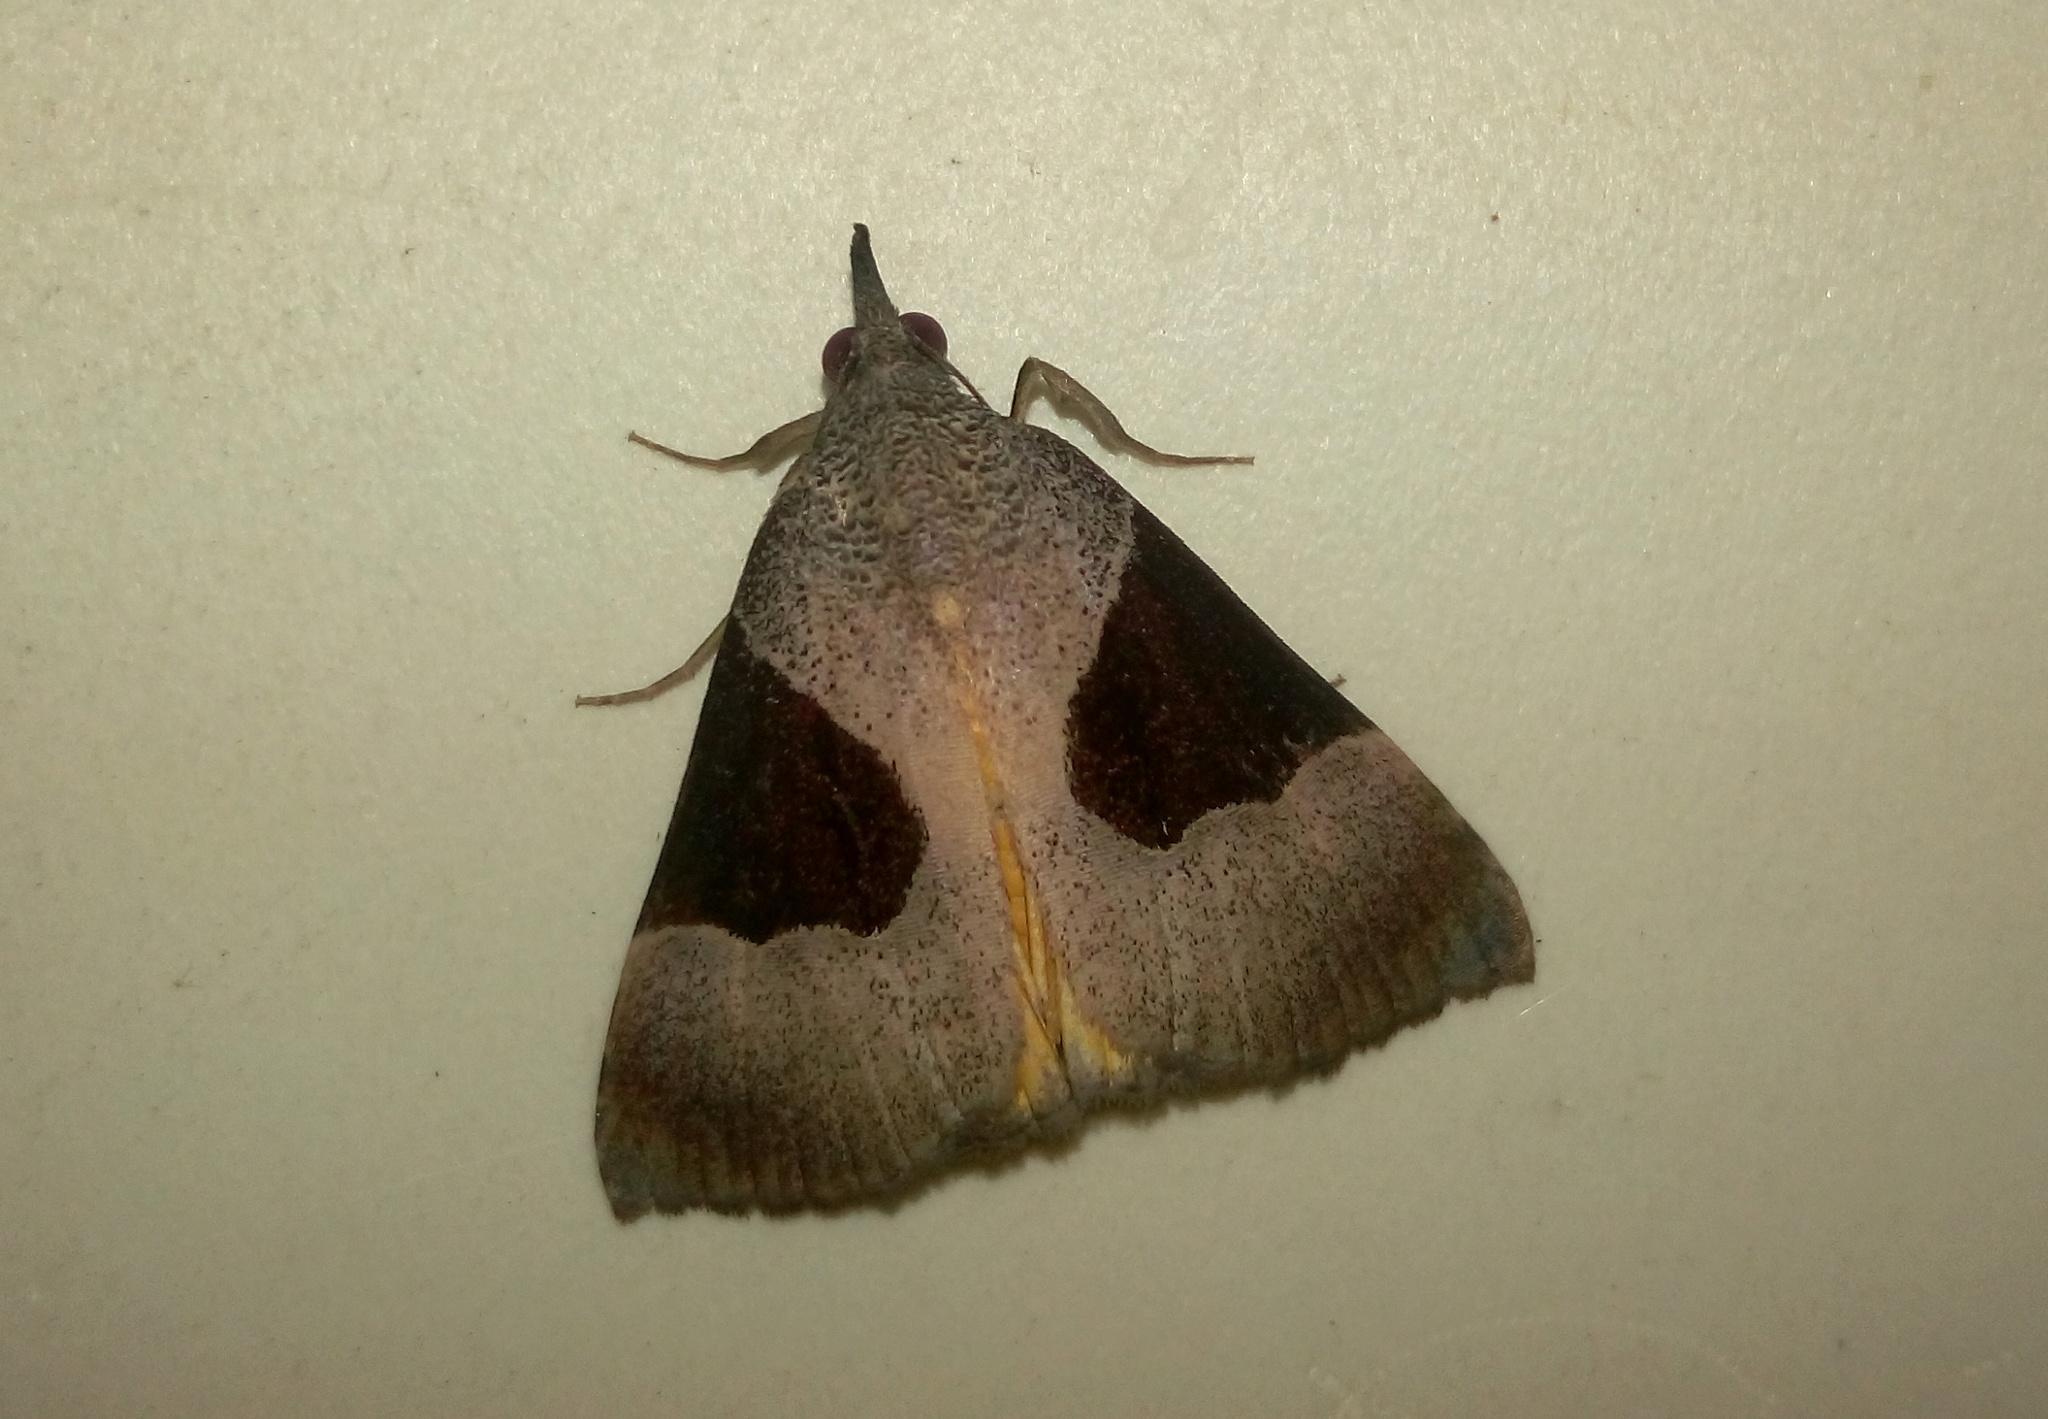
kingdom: Animalia
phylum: Arthropoda
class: Insecta
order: Lepidoptera
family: Erebidae
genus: Hypena
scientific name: Hypena Dichromia sagitta
